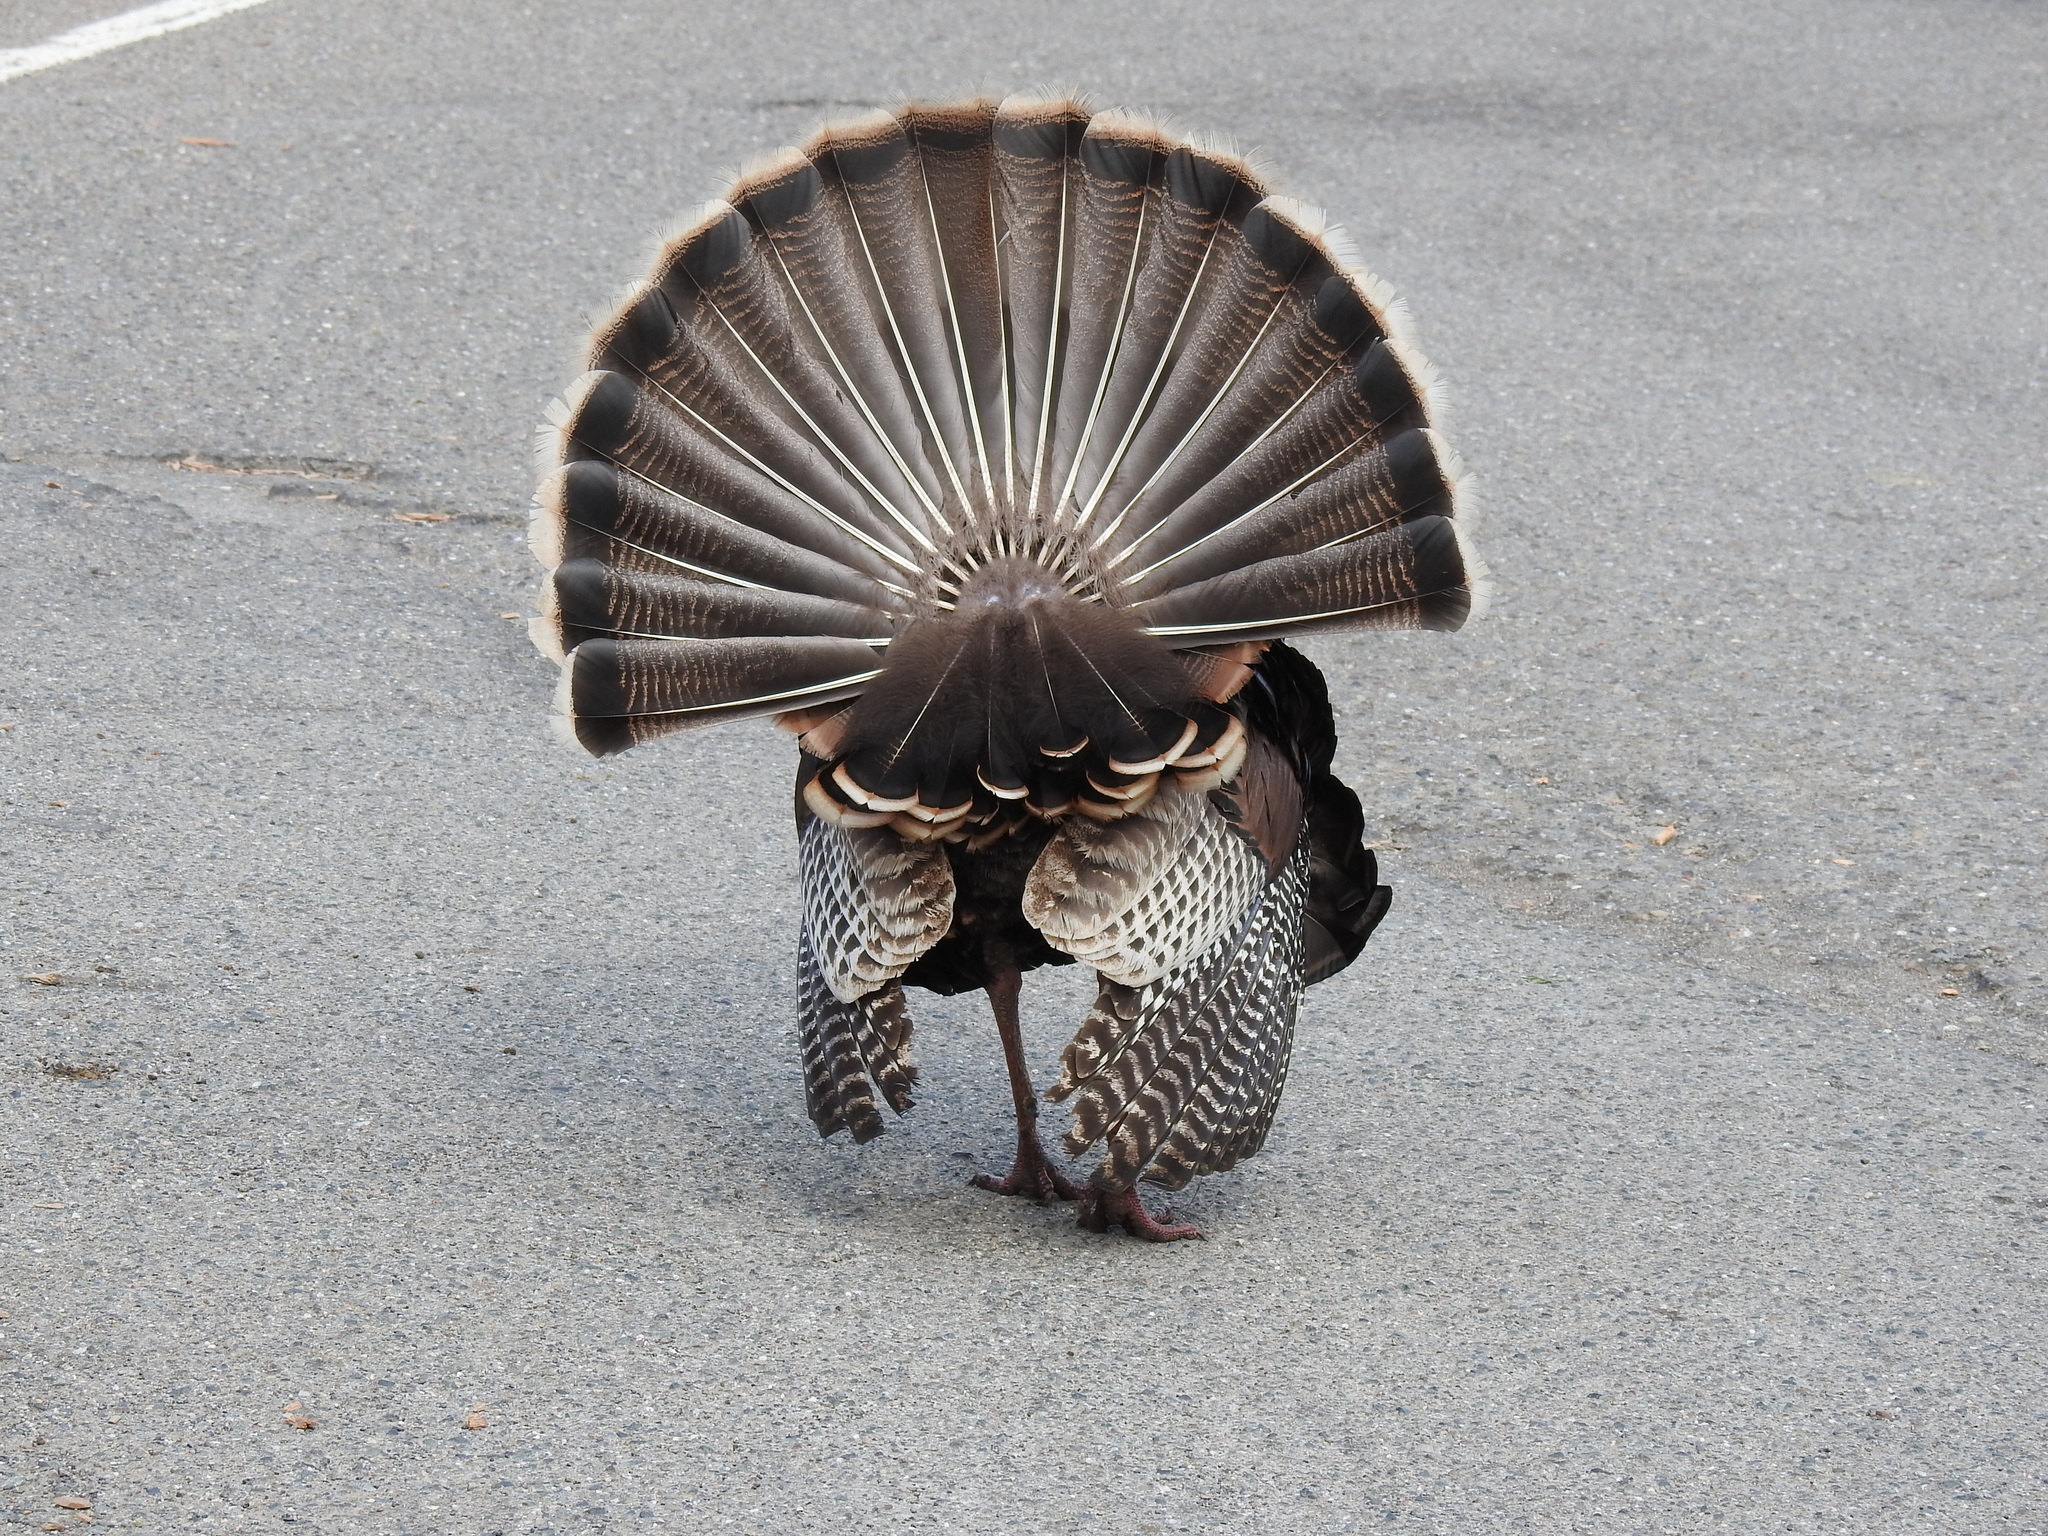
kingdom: Animalia
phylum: Chordata
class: Aves
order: Galliformes
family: Phasianidae
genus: Meleagris
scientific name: Meleagris gallopavo
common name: Wild turkey
